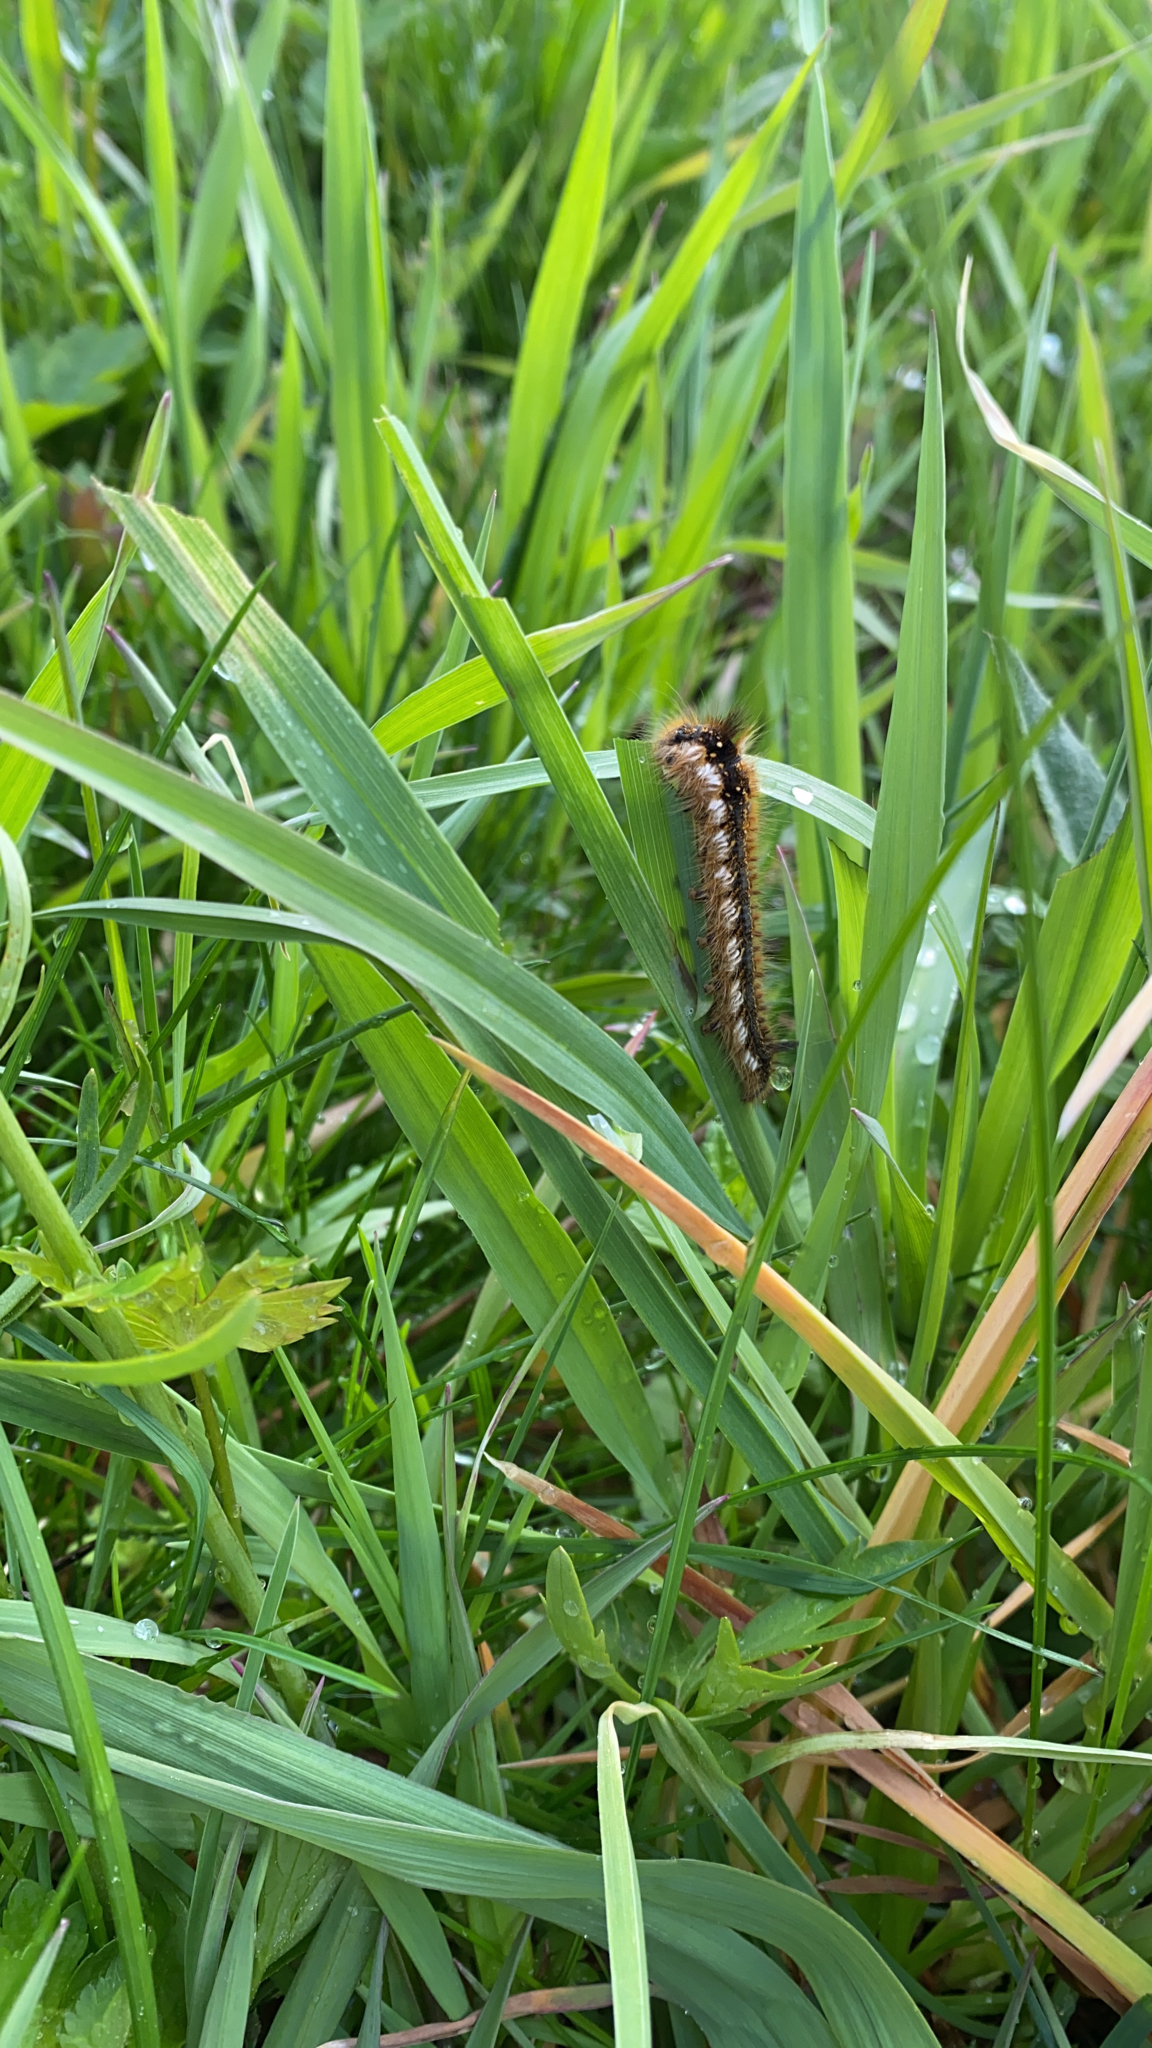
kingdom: Animalia
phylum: Arthropoda
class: Insecta
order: Lepidoptera
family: Lasiocampidae
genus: Euthrix
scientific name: Euthrix potatoria
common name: Drinker
